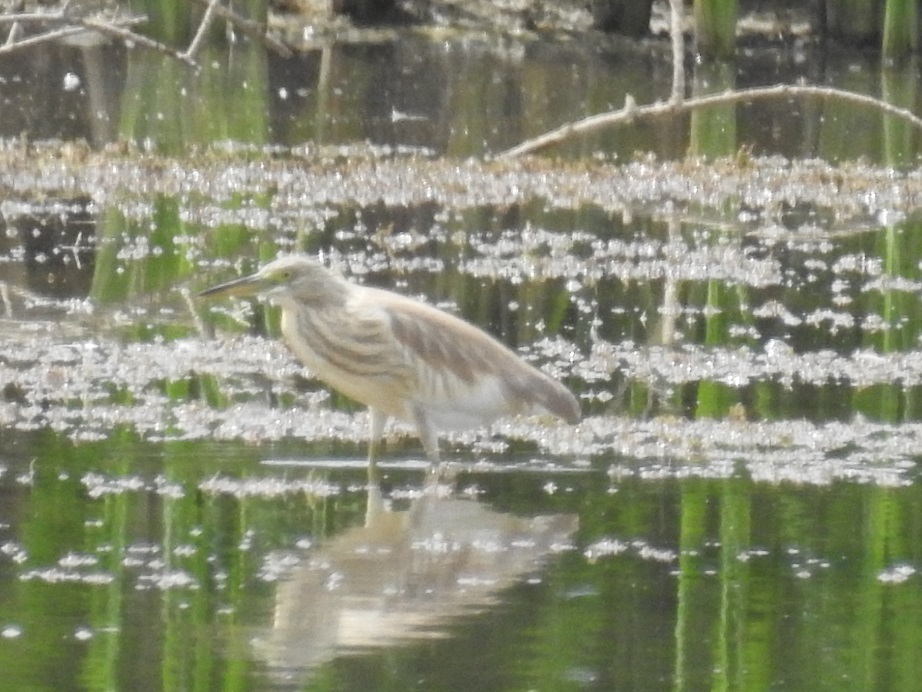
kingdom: Animalia
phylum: Chordata
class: Aves
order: Pelecaniformes
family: Ardeidae
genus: Ardeola
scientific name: Ardeola ralloides
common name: Squacco heron
